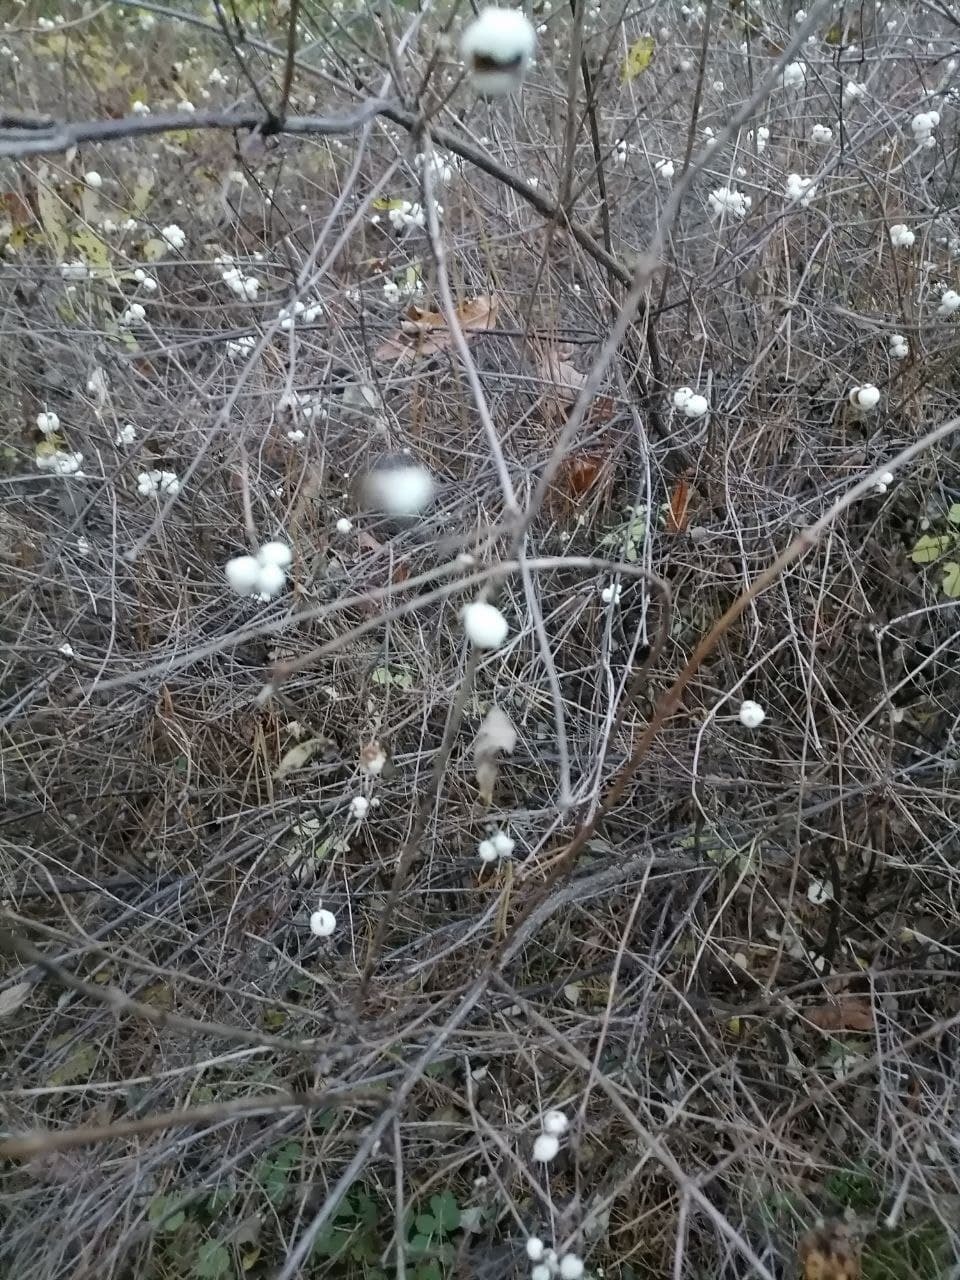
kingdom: Plantae
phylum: Tracheophyta
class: Magnoliopsida
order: Dipsacales
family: Caprifoliaceae
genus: Symphoricarpos
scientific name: Symphoricarpos albus
